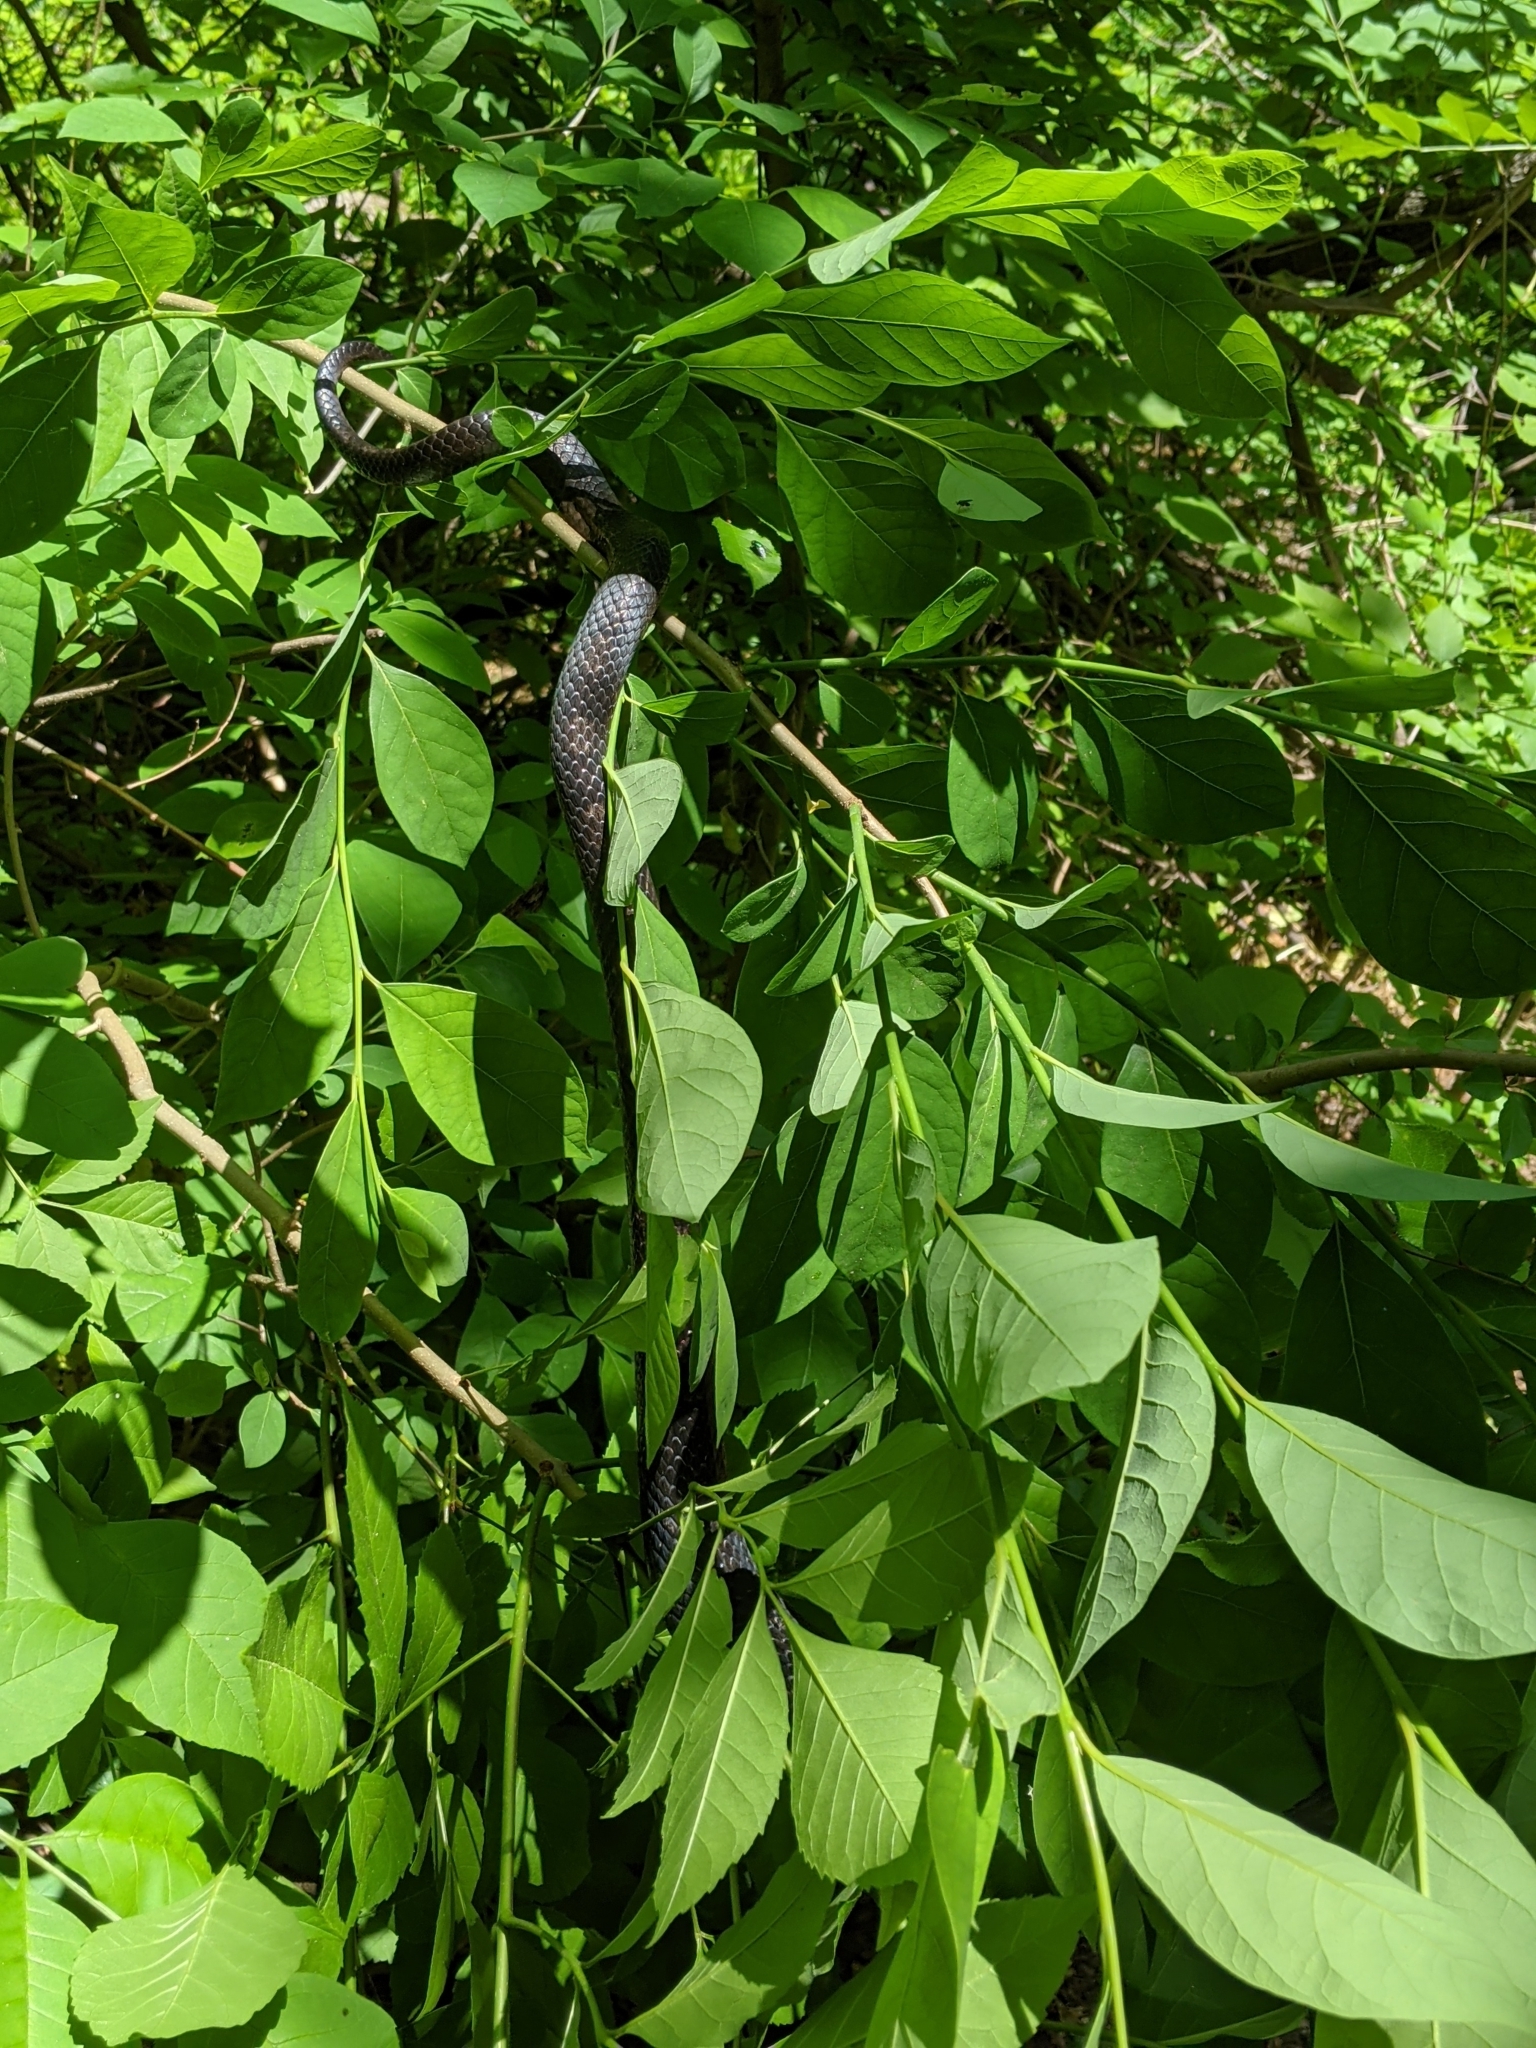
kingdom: Animalia
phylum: Chordata
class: Squamata
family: Colubridae
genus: Pantherophis
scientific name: Pantherophis alleghaniensis
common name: Eastern rat snake
